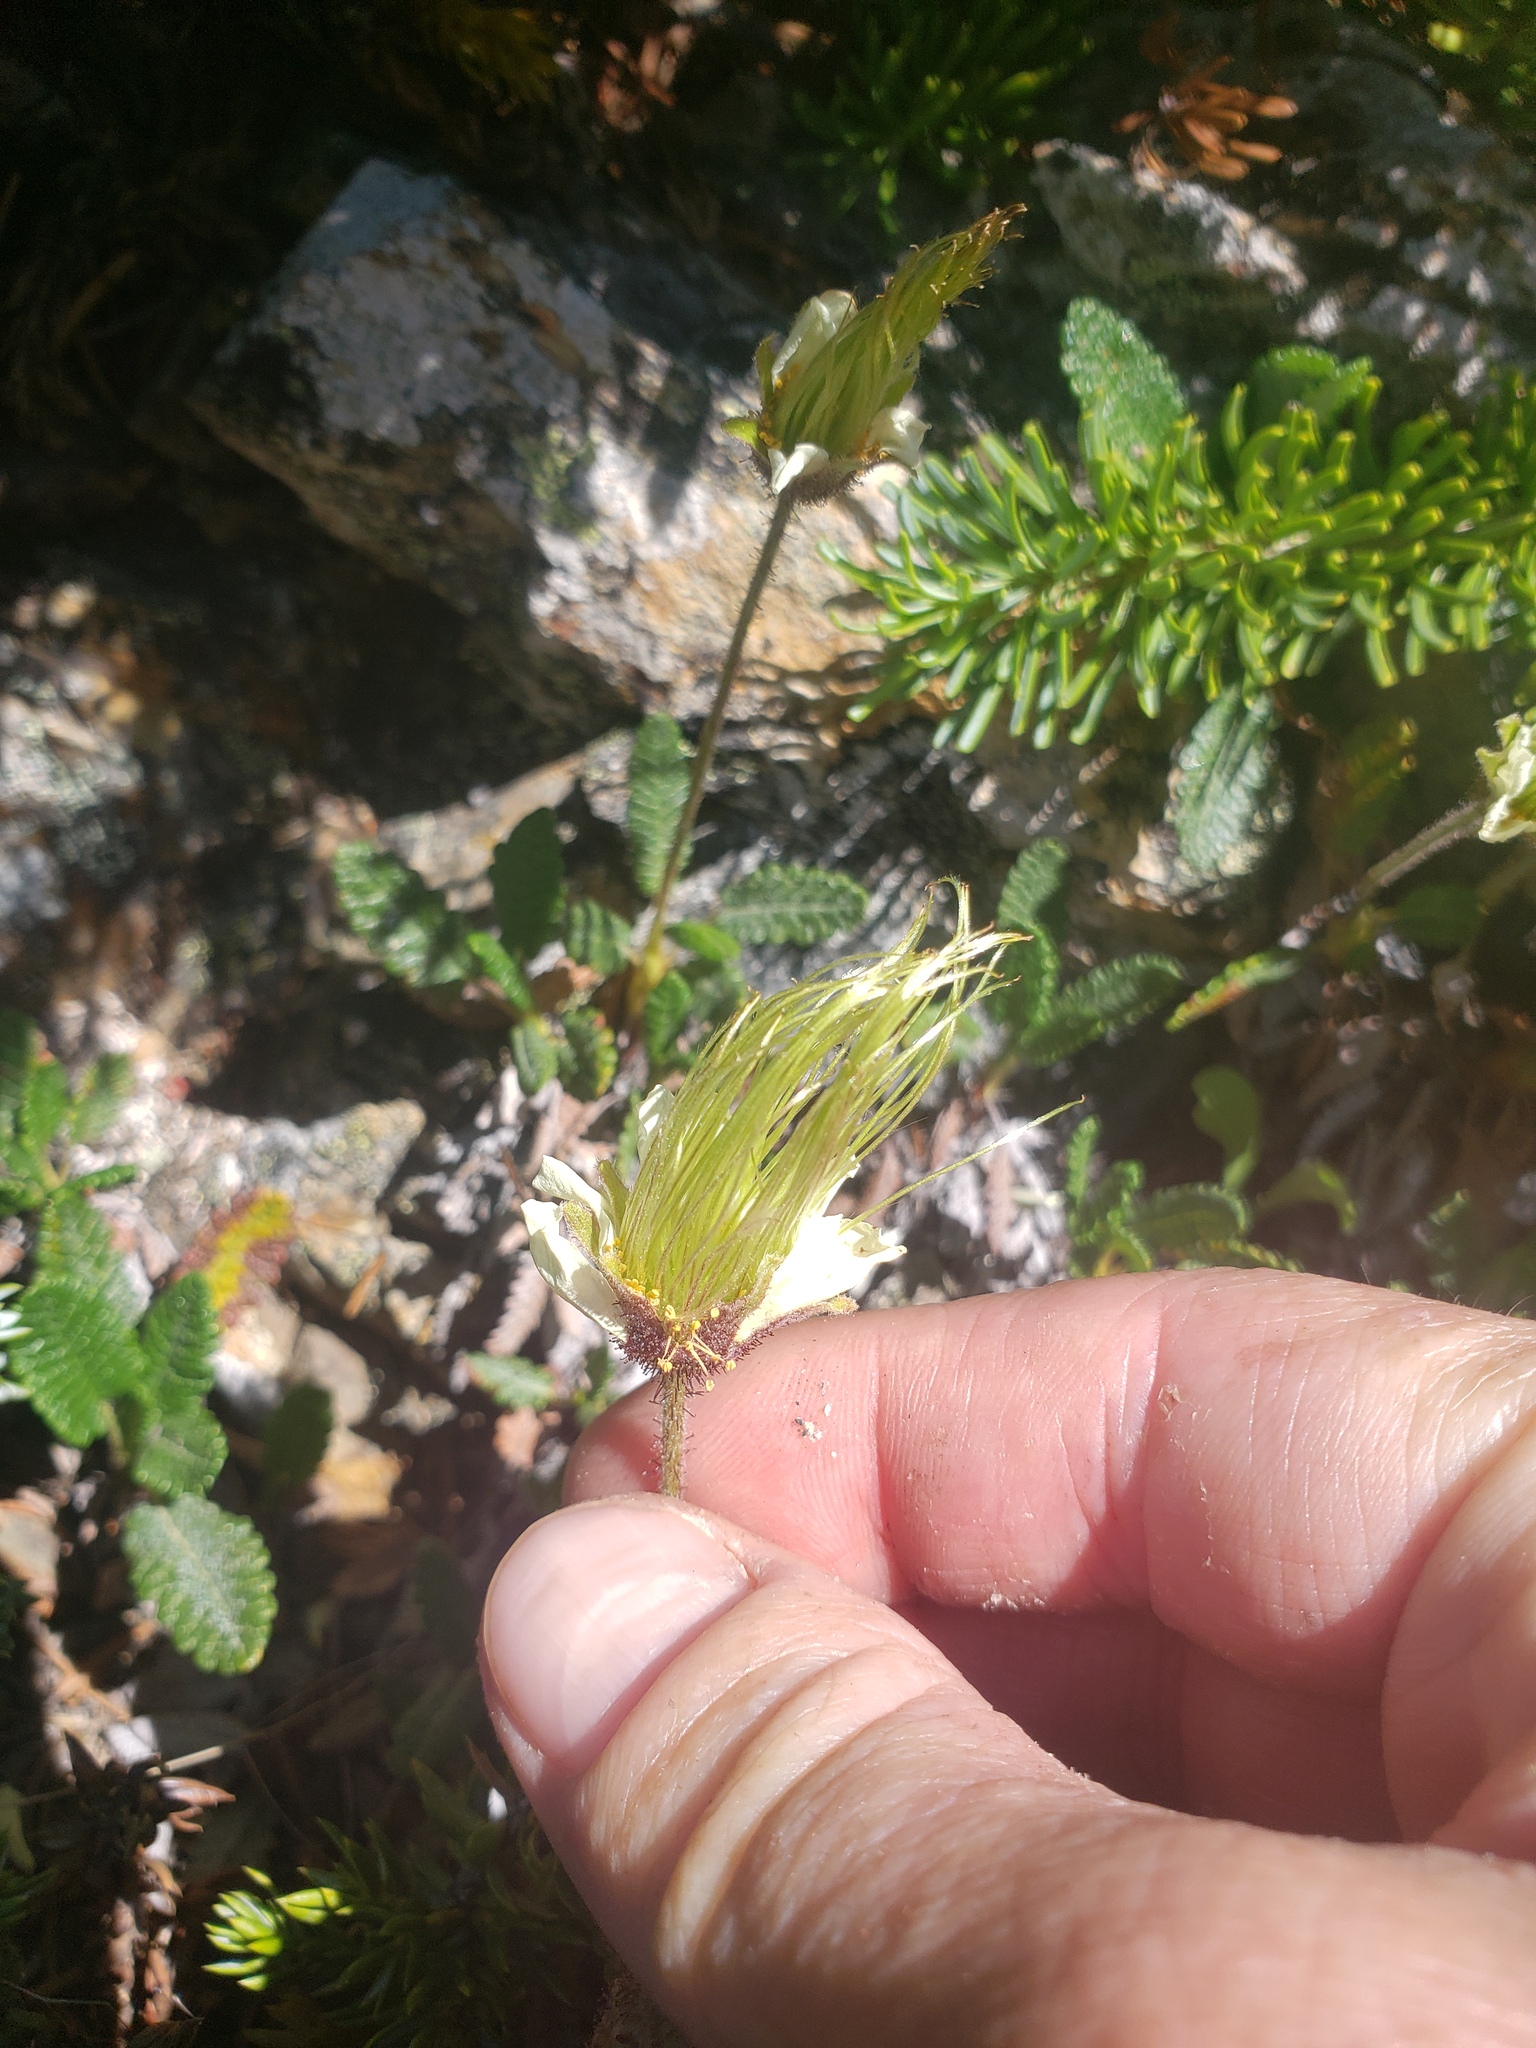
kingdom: Plantae
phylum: Tracheophyta
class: Magnoliopsida
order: Rosales
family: Rosaceae
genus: Dryas
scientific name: Dryas drummondii
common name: Drummond's dryad
